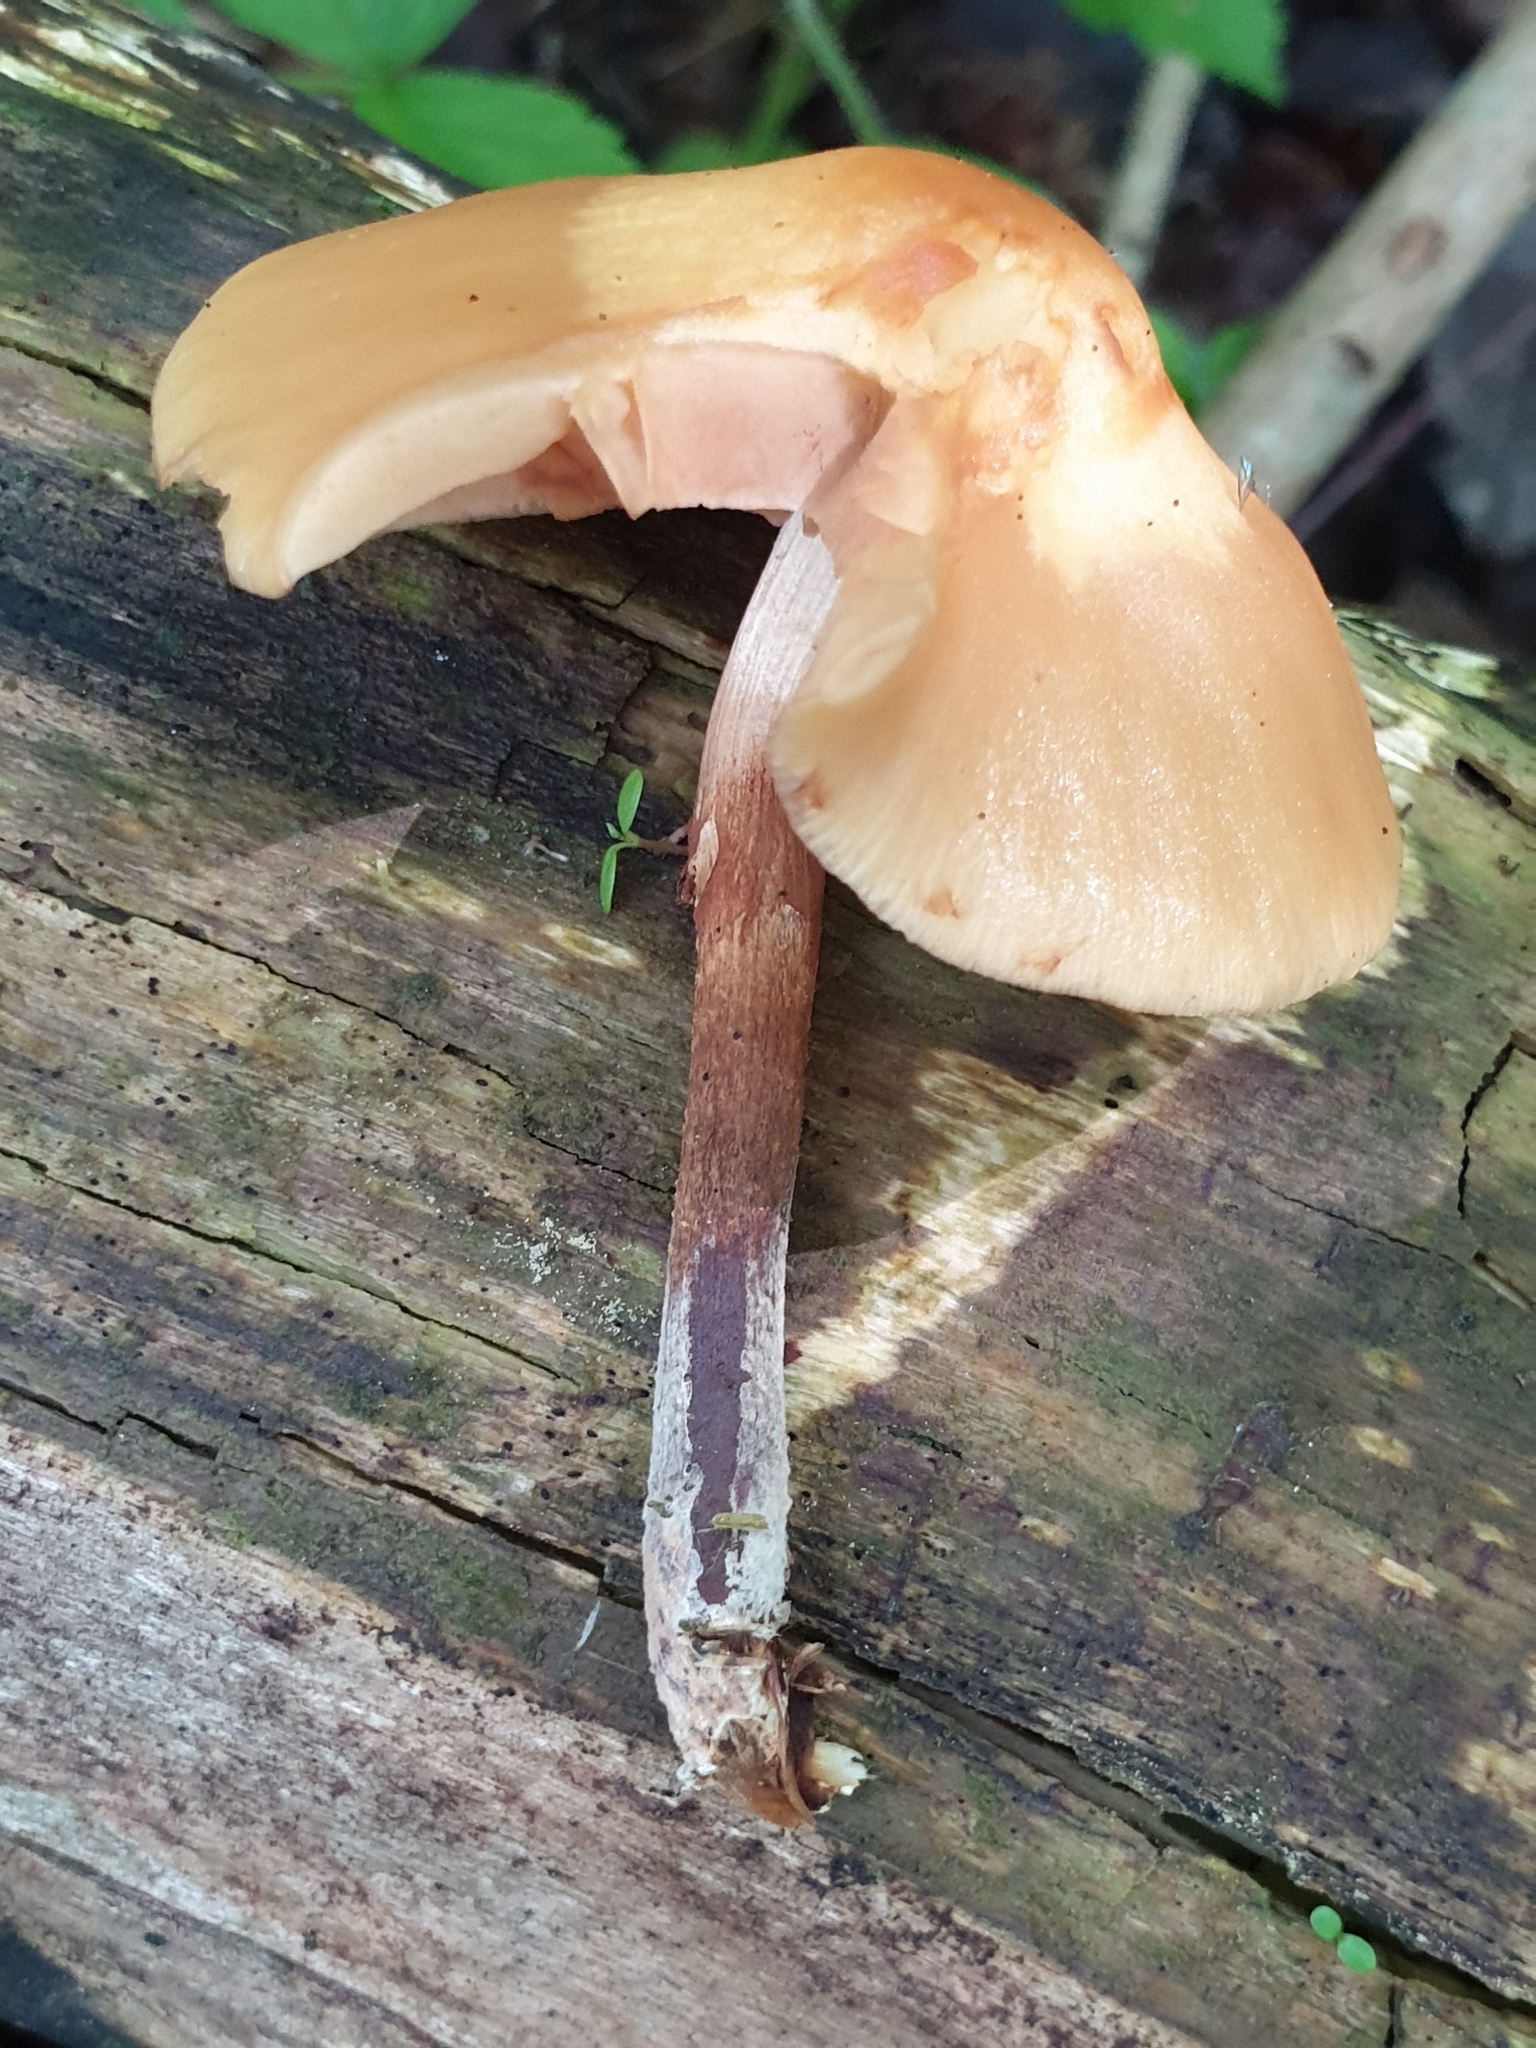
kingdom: Fungi
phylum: Basidiomycota
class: Agaricomycetes
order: Agaricales
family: Strophariaceae
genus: Kuehneromyces
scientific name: Kuehneromyces mutabilis
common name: Sheathed woodtuft
